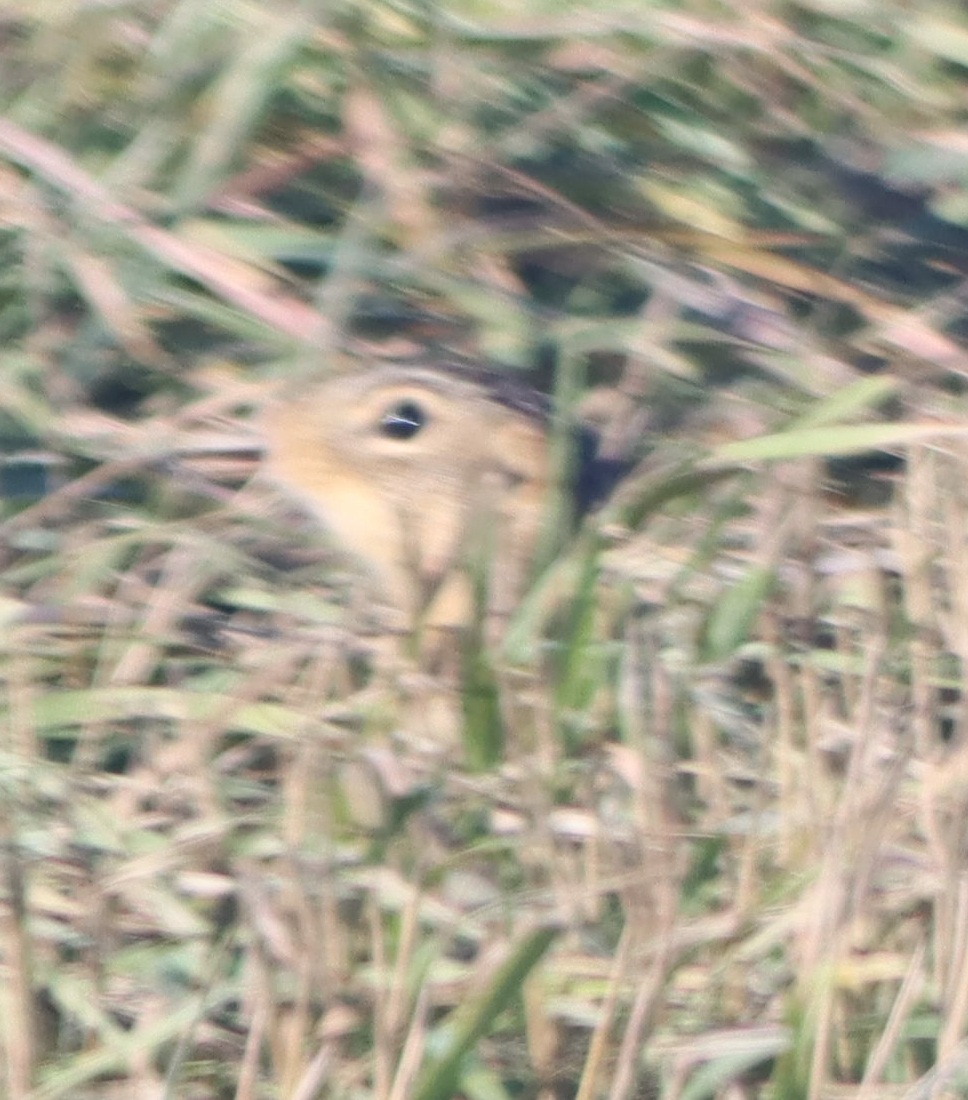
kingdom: Animalia
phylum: Chordata
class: Mammalia
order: Rodentia
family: Sciuridae
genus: Ictidomys
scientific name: Ictidomys tridecemlineatus
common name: Thirteen-lined ground squirrel
